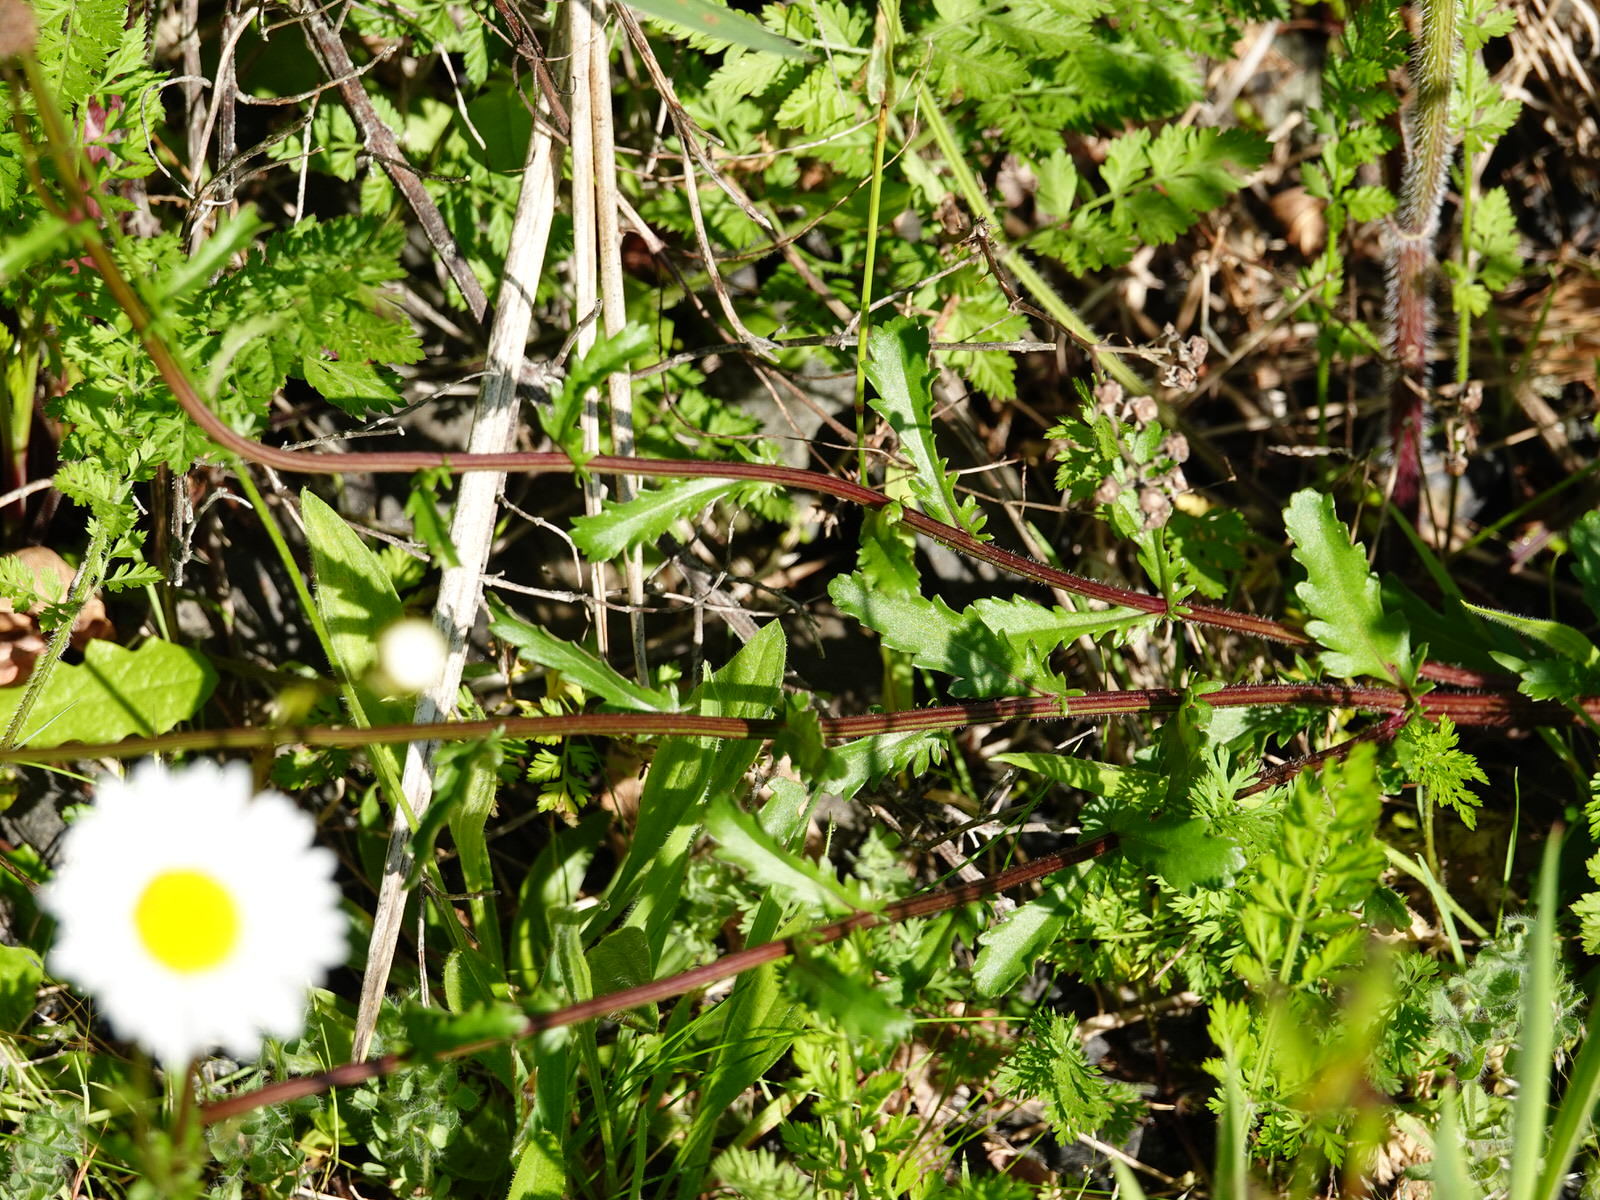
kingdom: Plantae
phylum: Tracheophyta
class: Magnoliopsida
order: Asterales
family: Asteraceae
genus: Leucanthemum
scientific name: Leucanthemum vulgare
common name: Oxeye daisy
